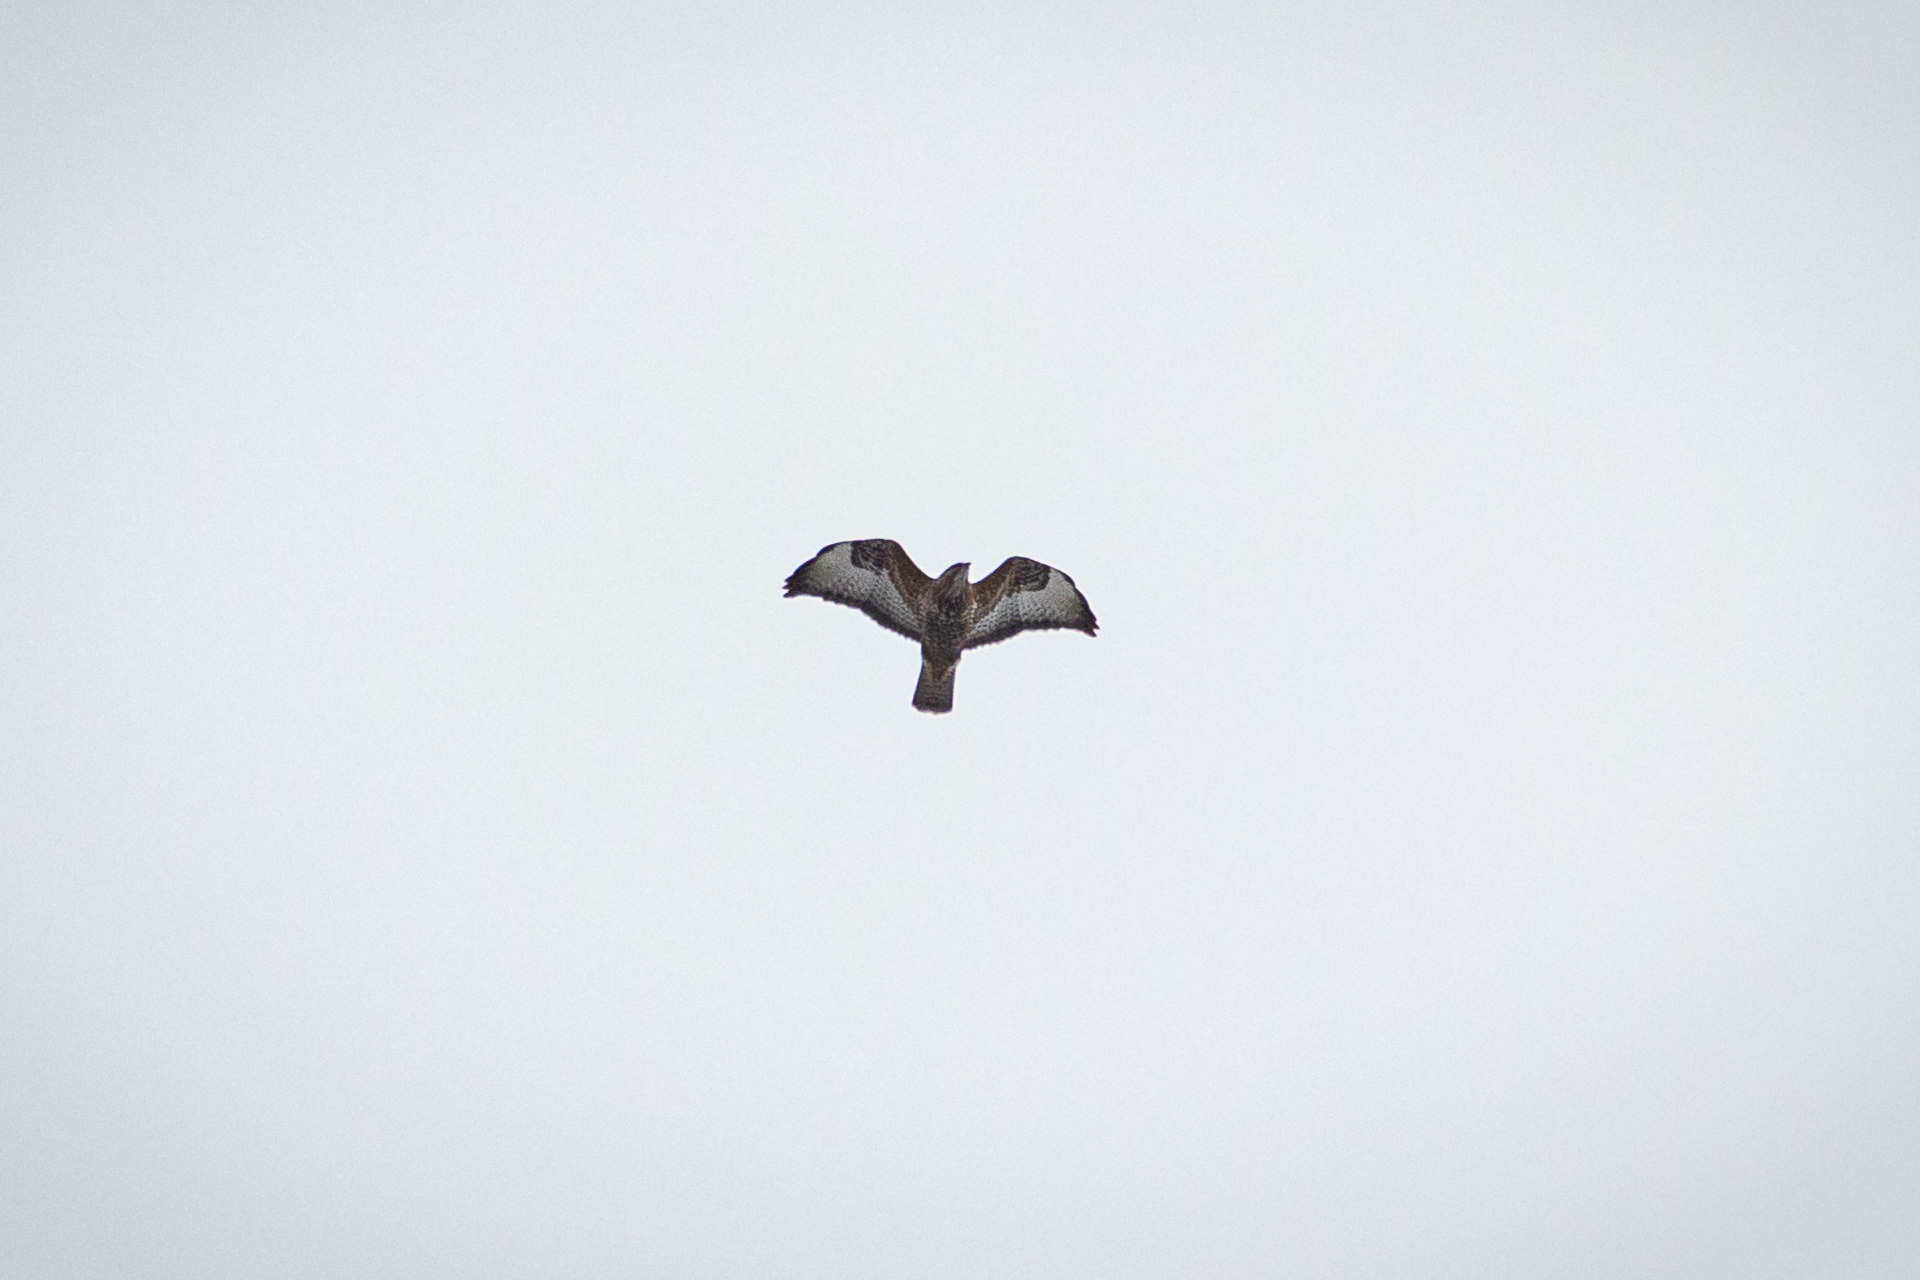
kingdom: Animalia
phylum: Chordata
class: Aves
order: Accipitriformes
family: Accipitridae
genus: Buteo
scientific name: Buteo buteo
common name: Common buzzard
